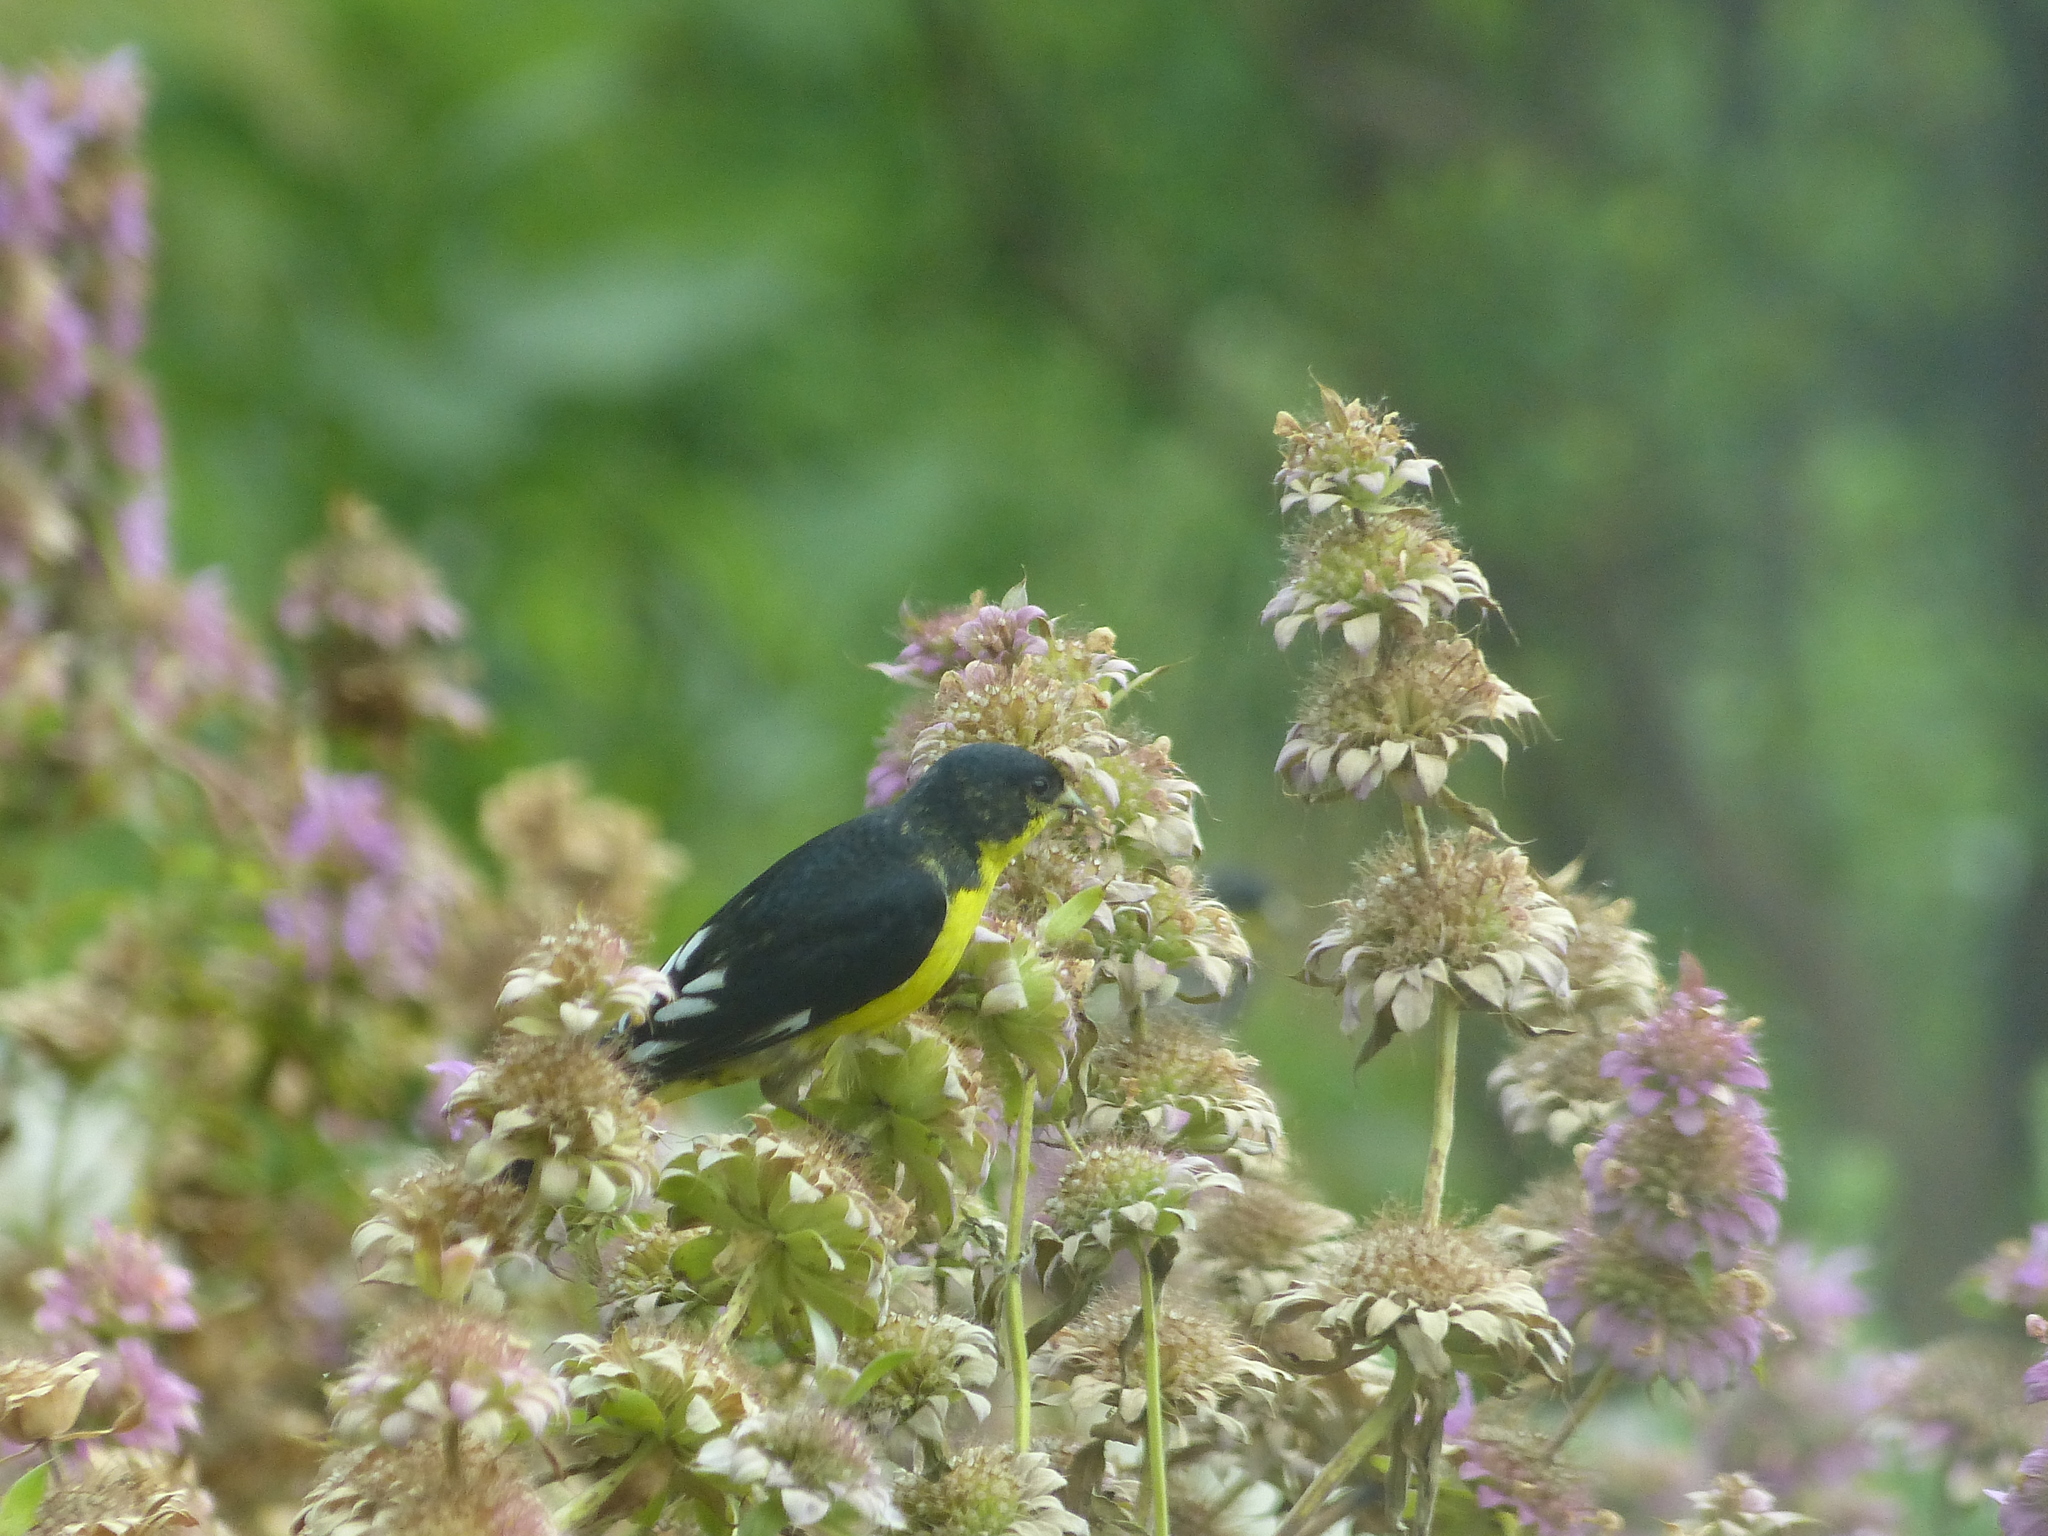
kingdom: Animalia
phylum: Chordata
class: Aves
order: Passeriformes
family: Fringillidae
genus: Spinus
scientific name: Spinus psaltria
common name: Lesser goldfinch
